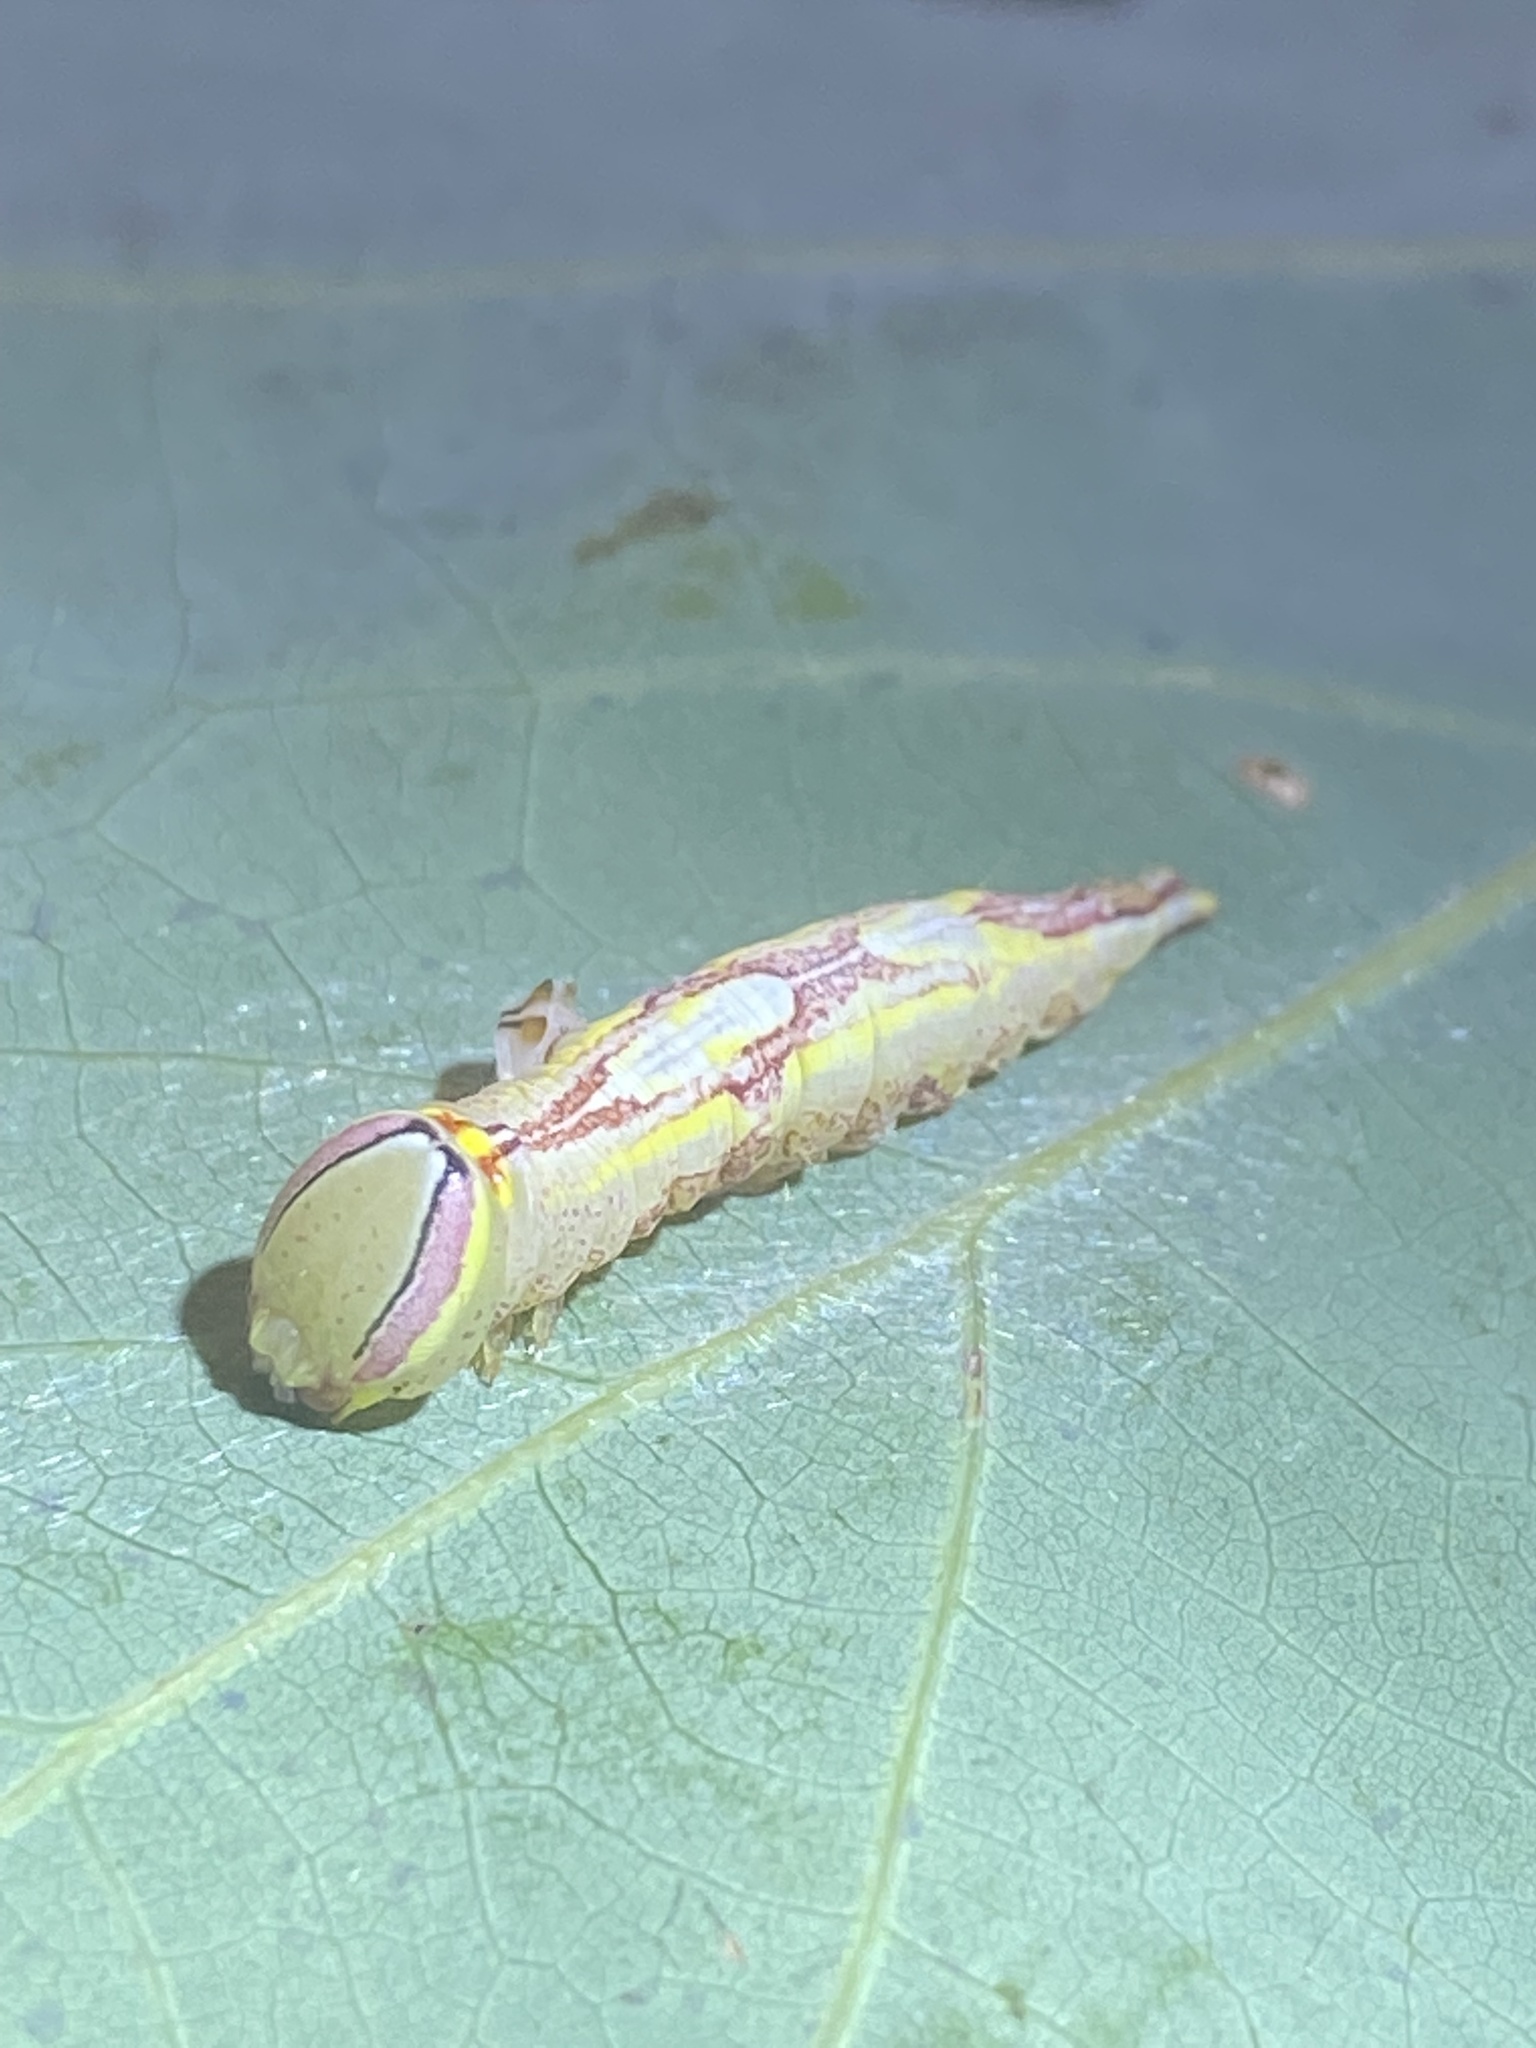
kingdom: Animalia
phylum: Arthropoda
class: Insecta
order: Lepidoptera
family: Notodontidae
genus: Disphragis
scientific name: Disphragis Cecrita guttivitta
